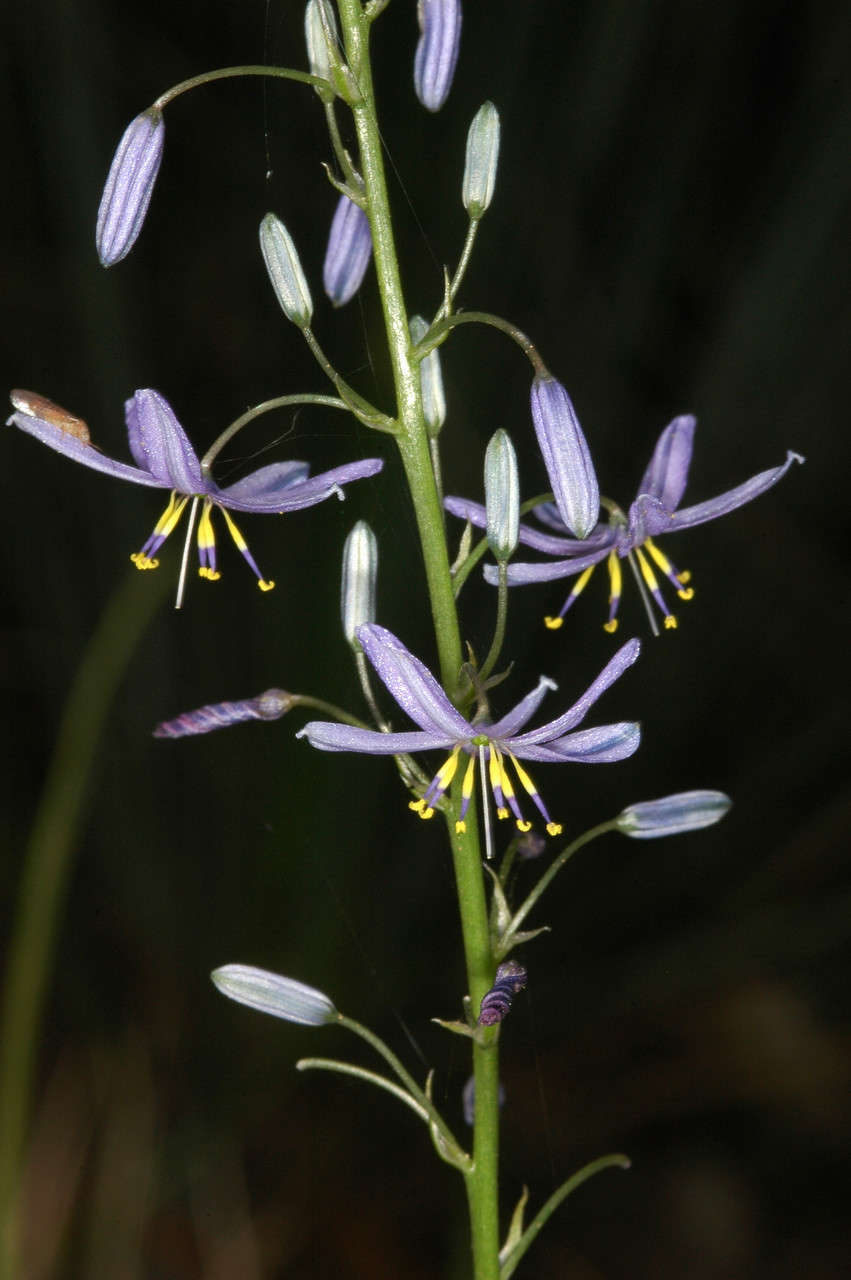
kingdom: Plantae
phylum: Tracheophyta
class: Liliopsida
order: Asparagales
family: Asphodelaceae
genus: Caesia
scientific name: Caesia calliantha
